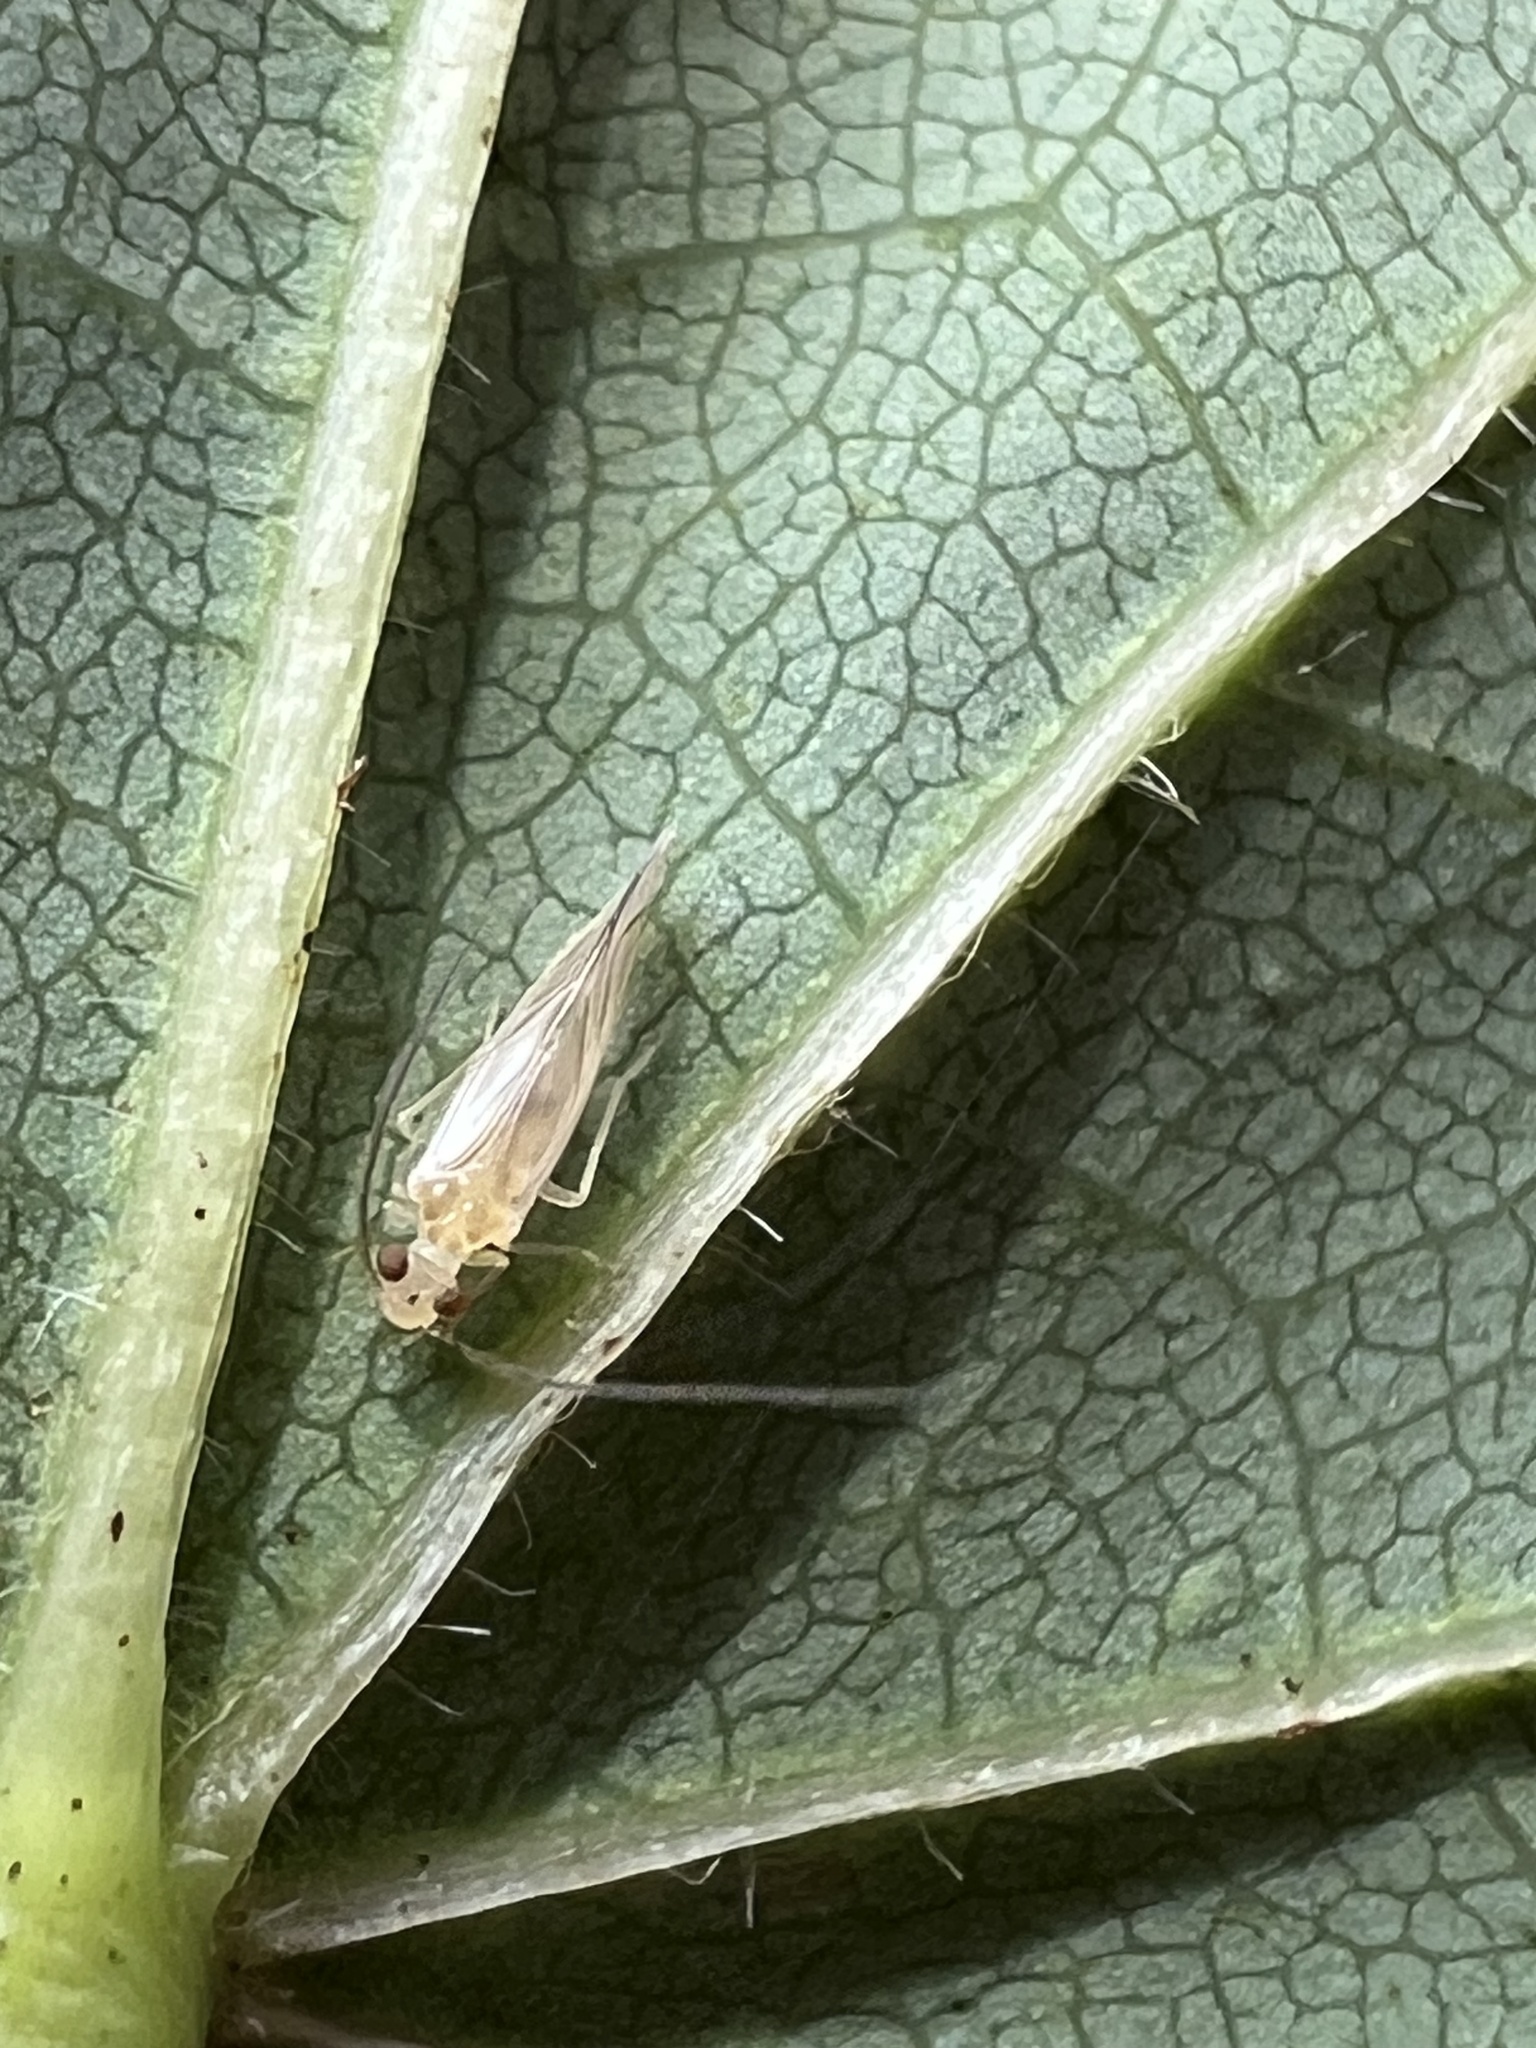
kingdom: Animalia
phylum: Arthropoda
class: Insecta
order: Psocodea
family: Caeciliusidae
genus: Valenzuela
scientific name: Valenzuela flavidus
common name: Yellow barklouse
